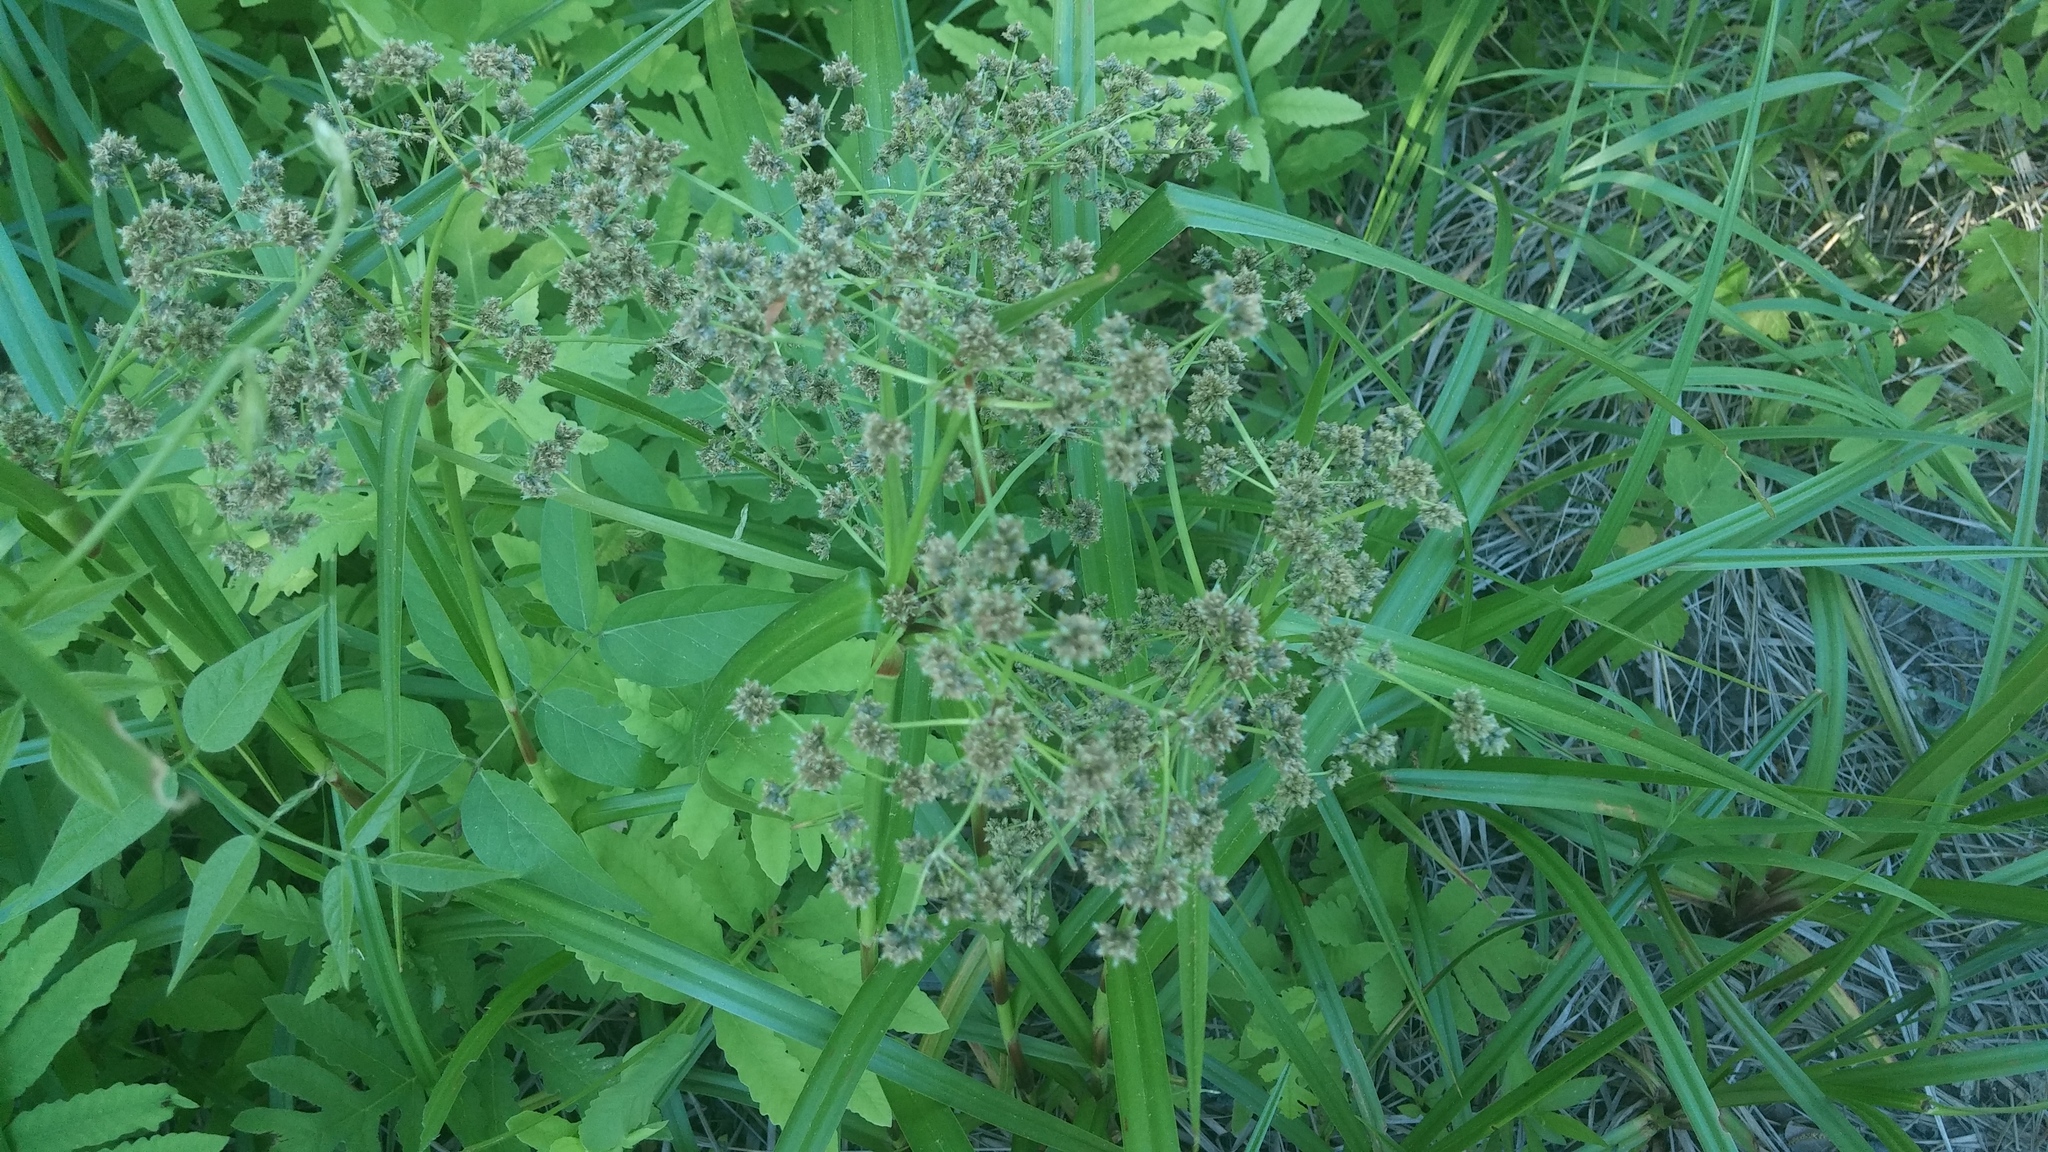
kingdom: Plantae
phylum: Tracheophyta
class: Liliopsida
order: Poales
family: Cyperaceae
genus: Scirpus
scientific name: Scirpus microcarpus
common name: Panicled bulrush
